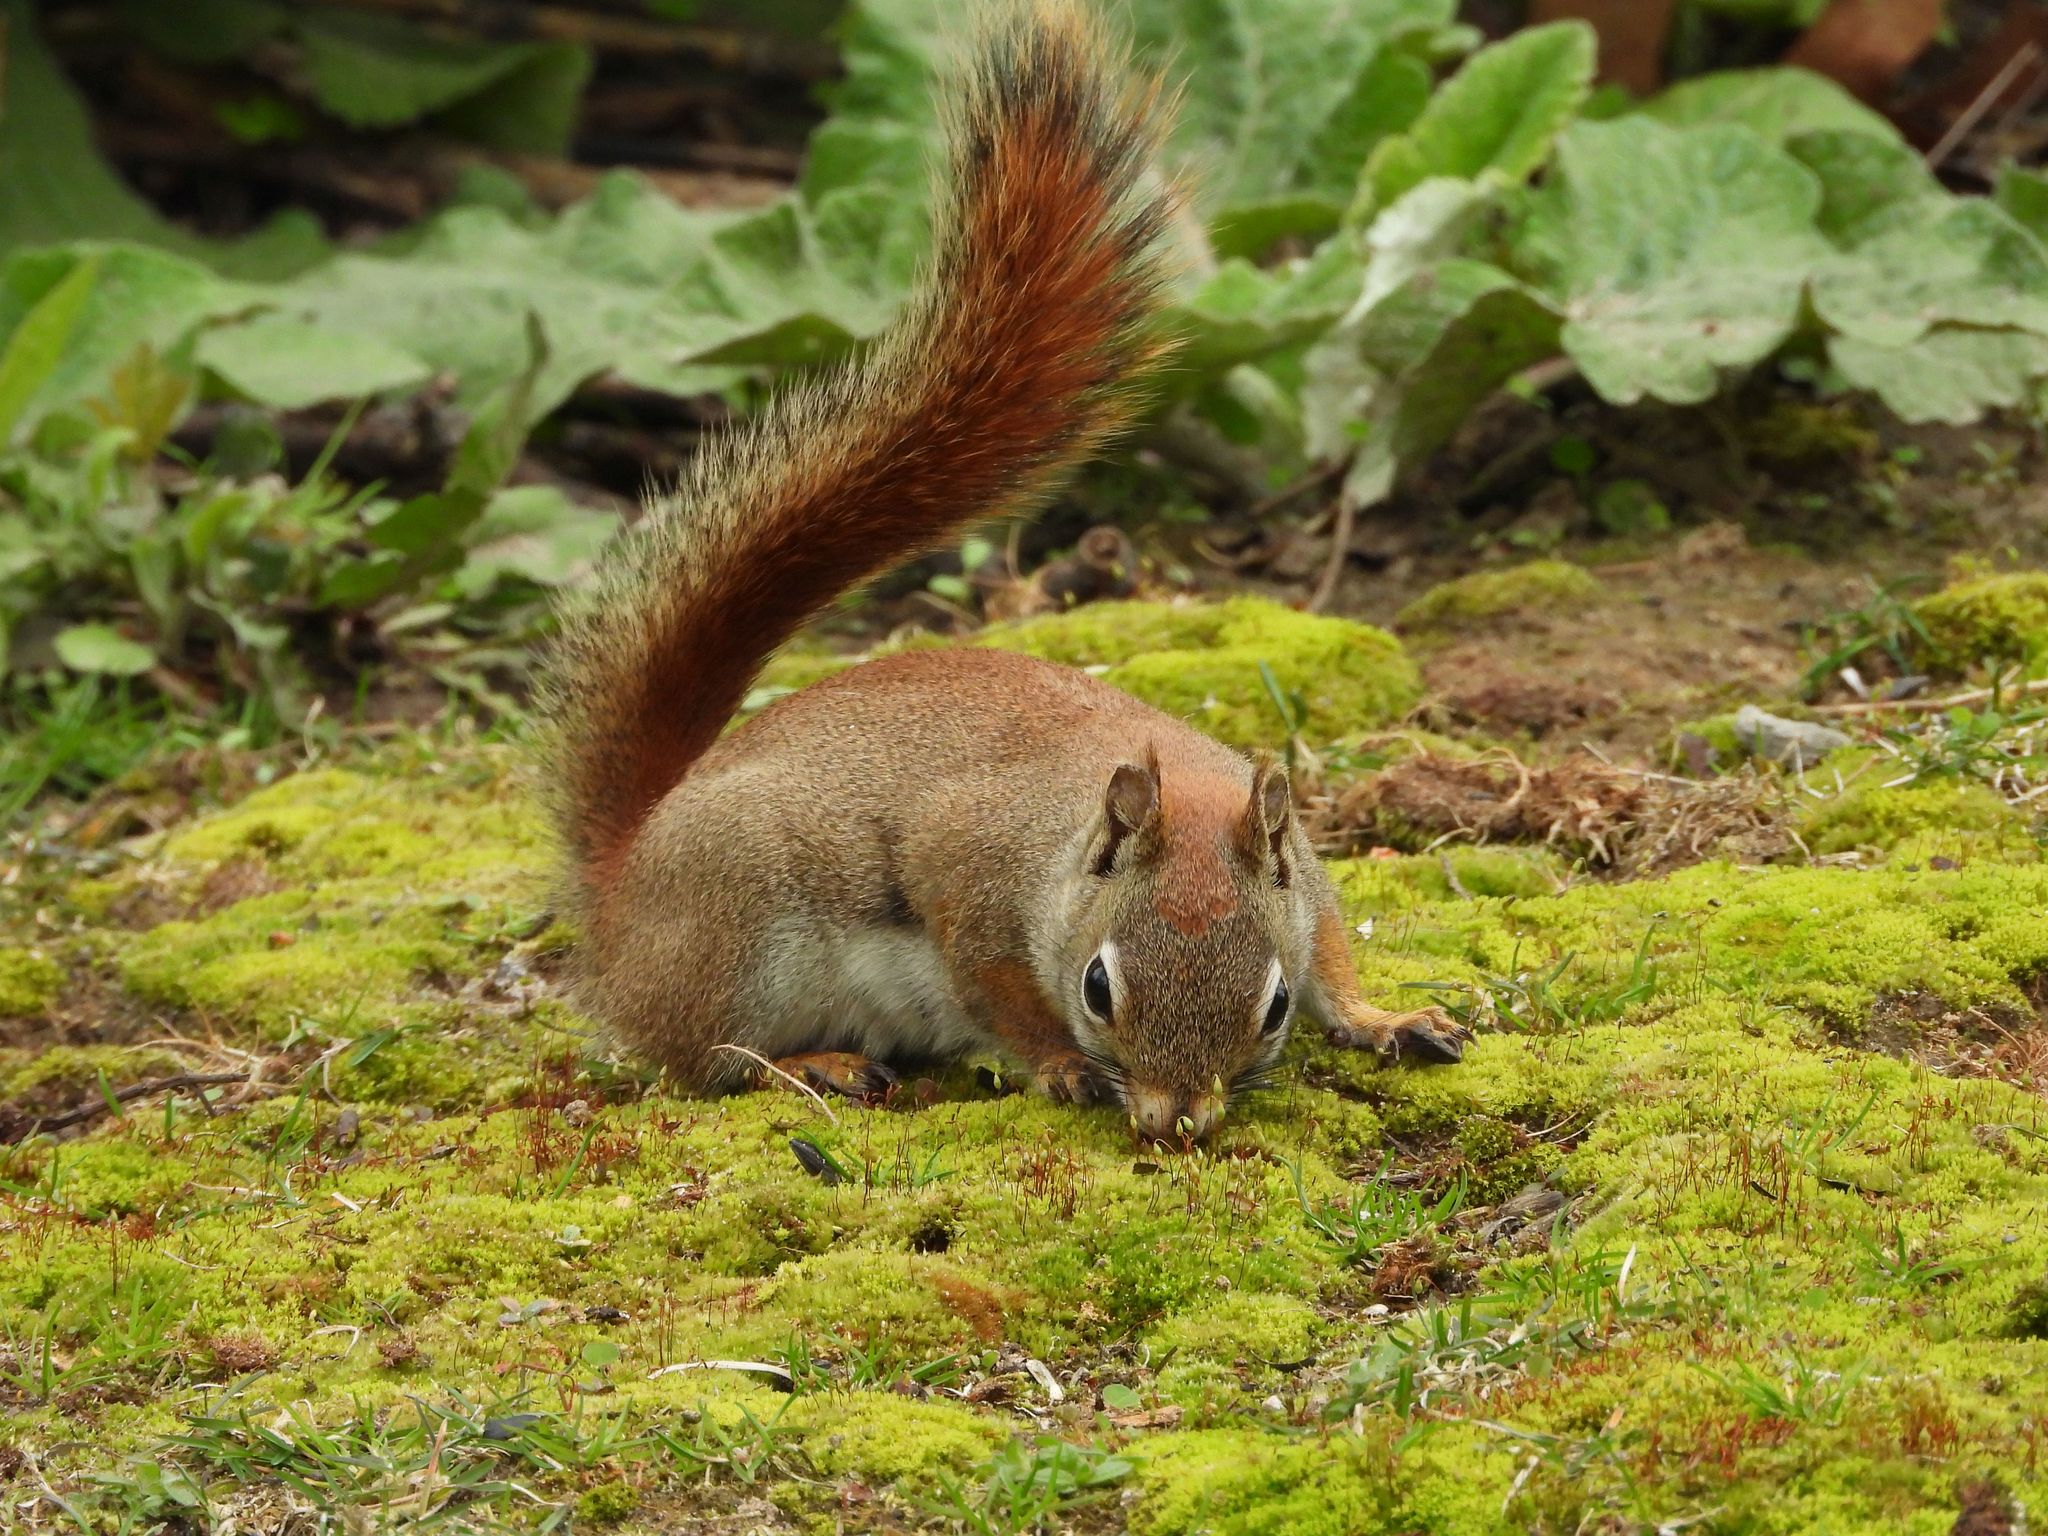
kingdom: Animalia
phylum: Chordata
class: Mammalia
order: Rodentia
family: Sciuridae
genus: Tamiasciurus
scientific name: Tamiasciurus hudsonicus
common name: Red squirrel
